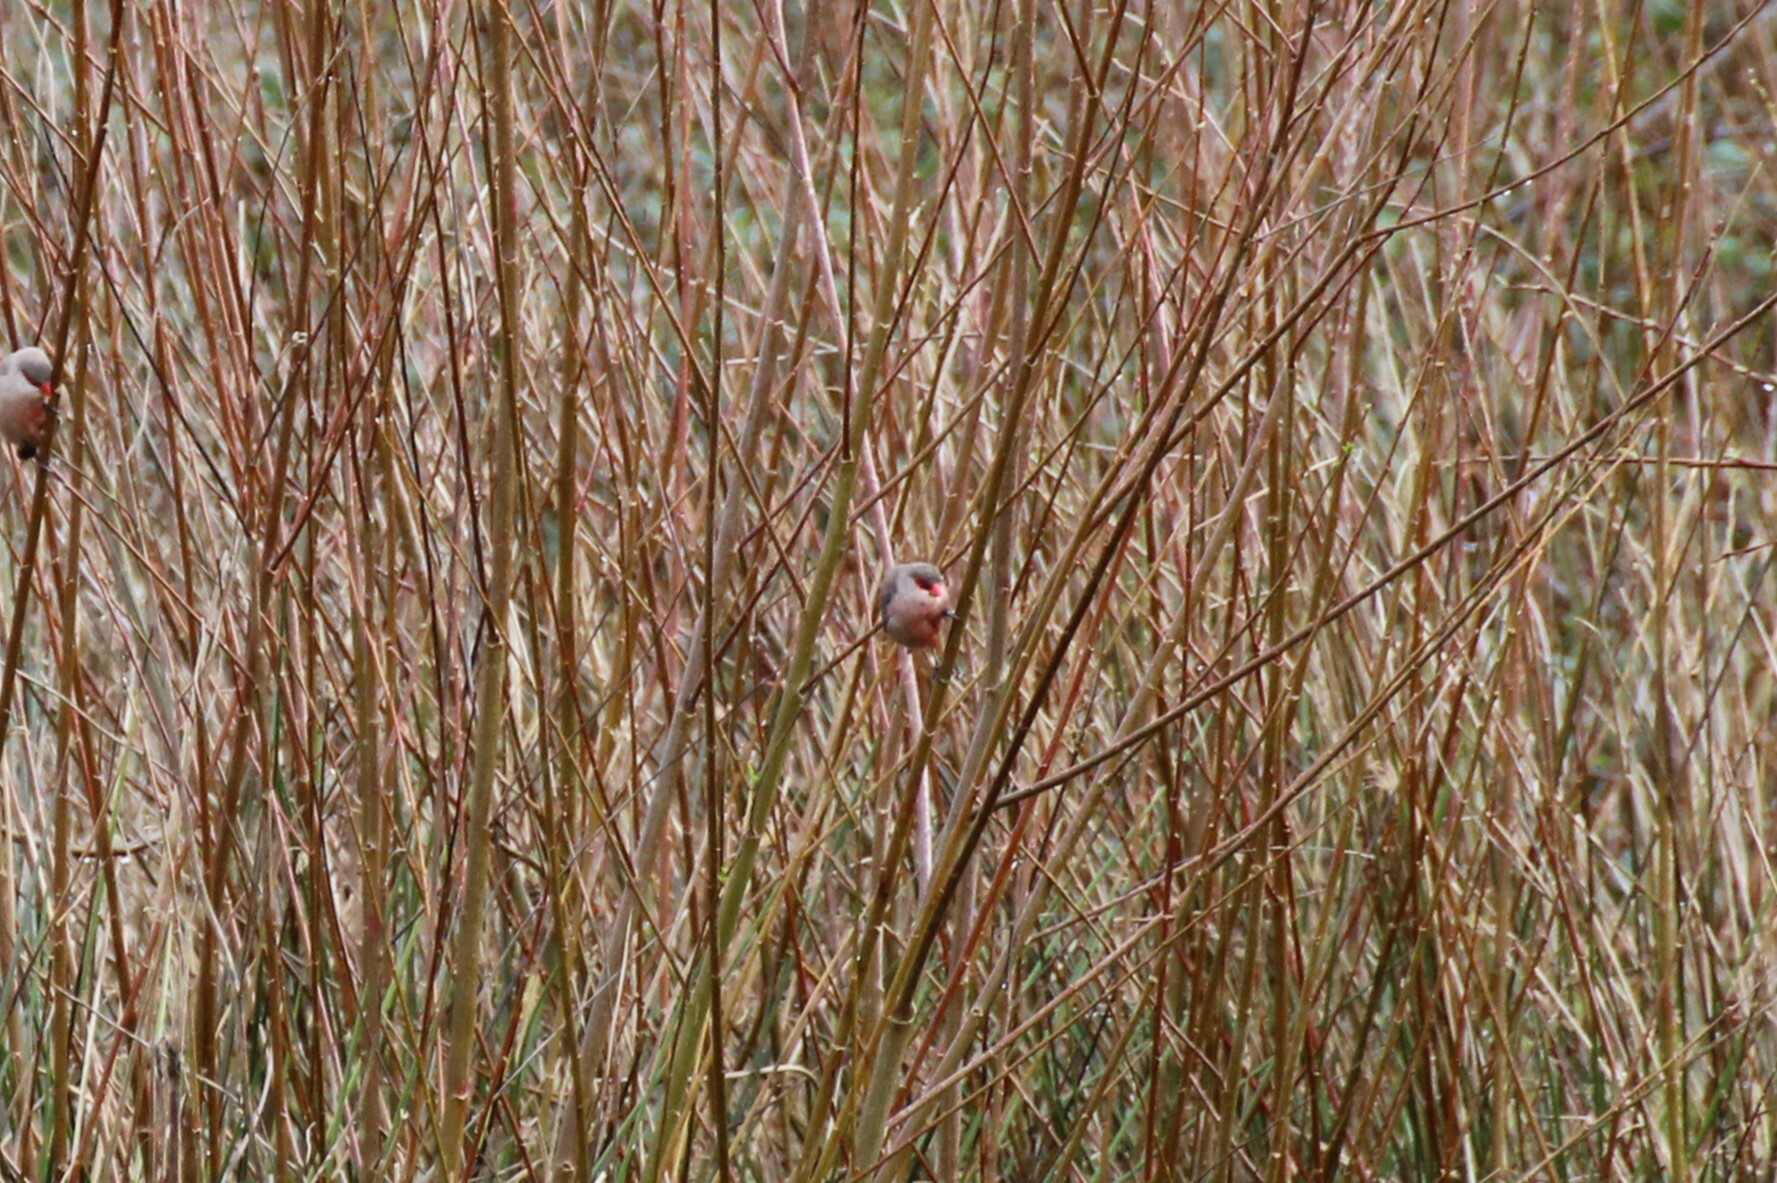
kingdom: Animalia
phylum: Chordata
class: Aves
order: Passeriformes
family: Estrildidae
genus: Estrilda
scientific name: Estrilda astrild
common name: Common waxbill
